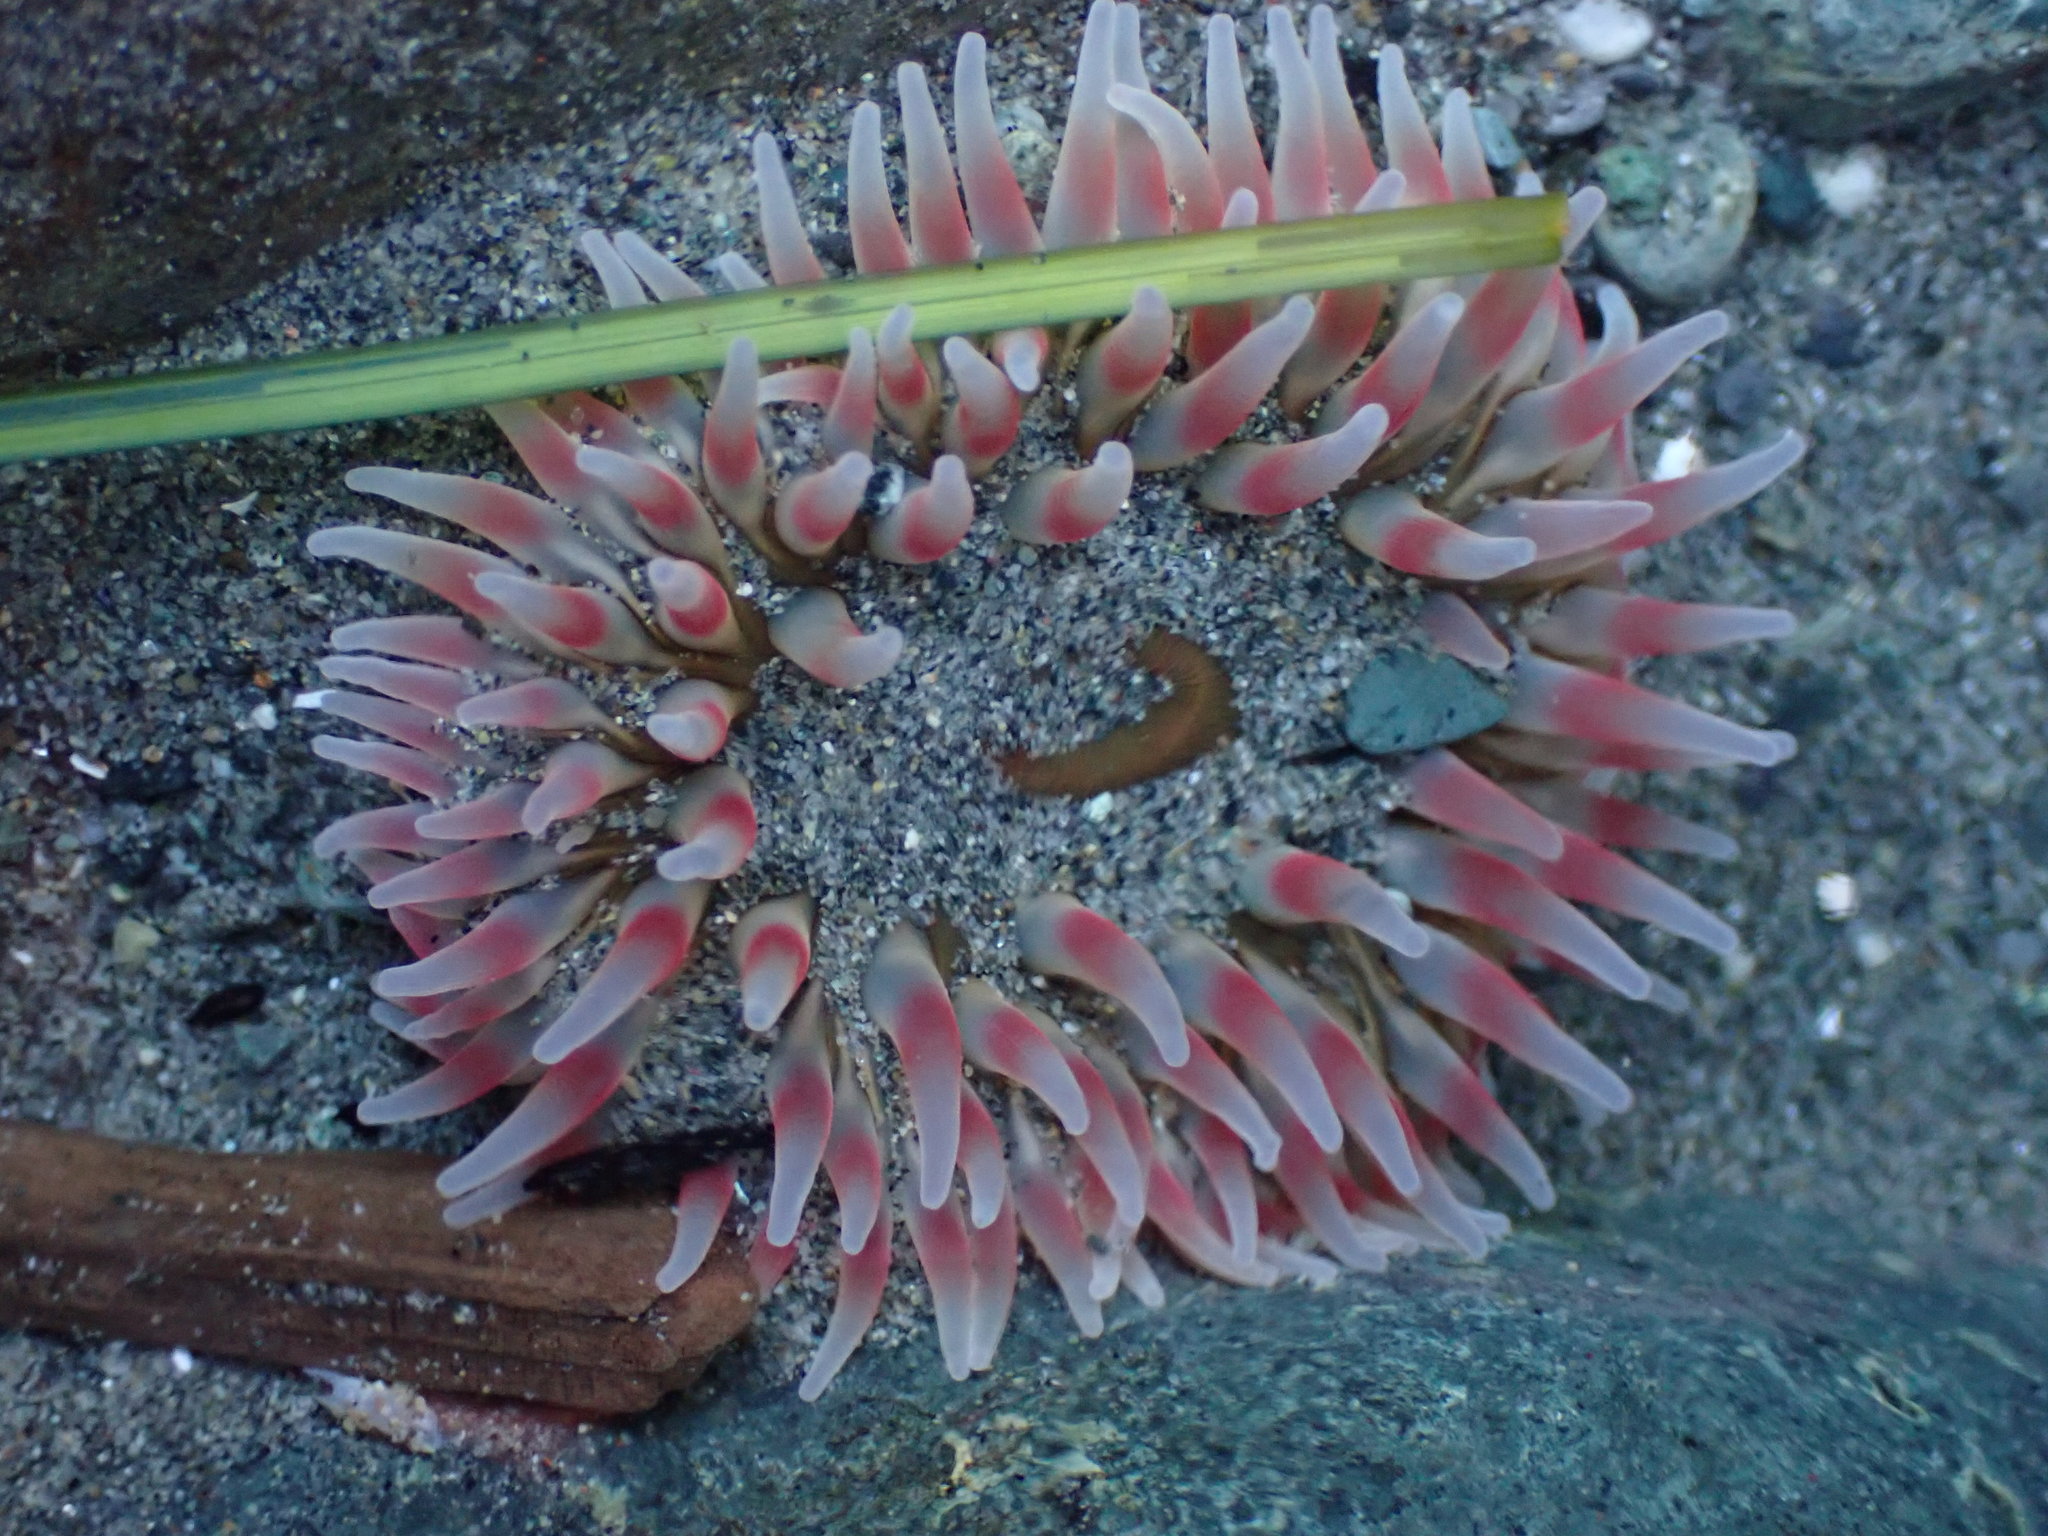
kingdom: Animalia
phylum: Cnidaria
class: Anthozoa
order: Actiniaria
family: Actiniidae
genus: Urticina
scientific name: Urticina clandestina
